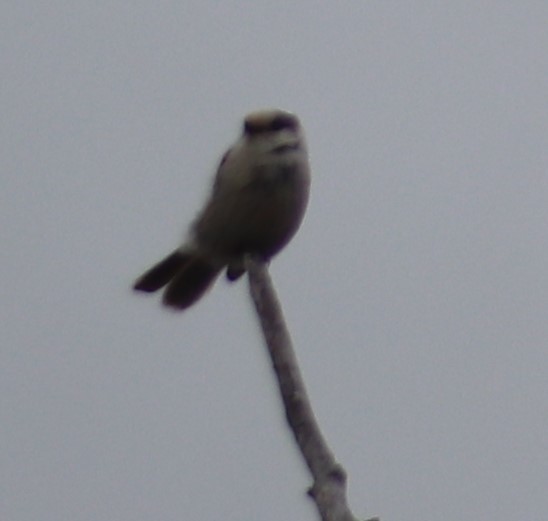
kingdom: Animalia
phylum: Chordata
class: Aves
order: Passeriformes
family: Corvidae
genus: Perisoreus
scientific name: Perisoreus canadensis
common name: Gray jay
